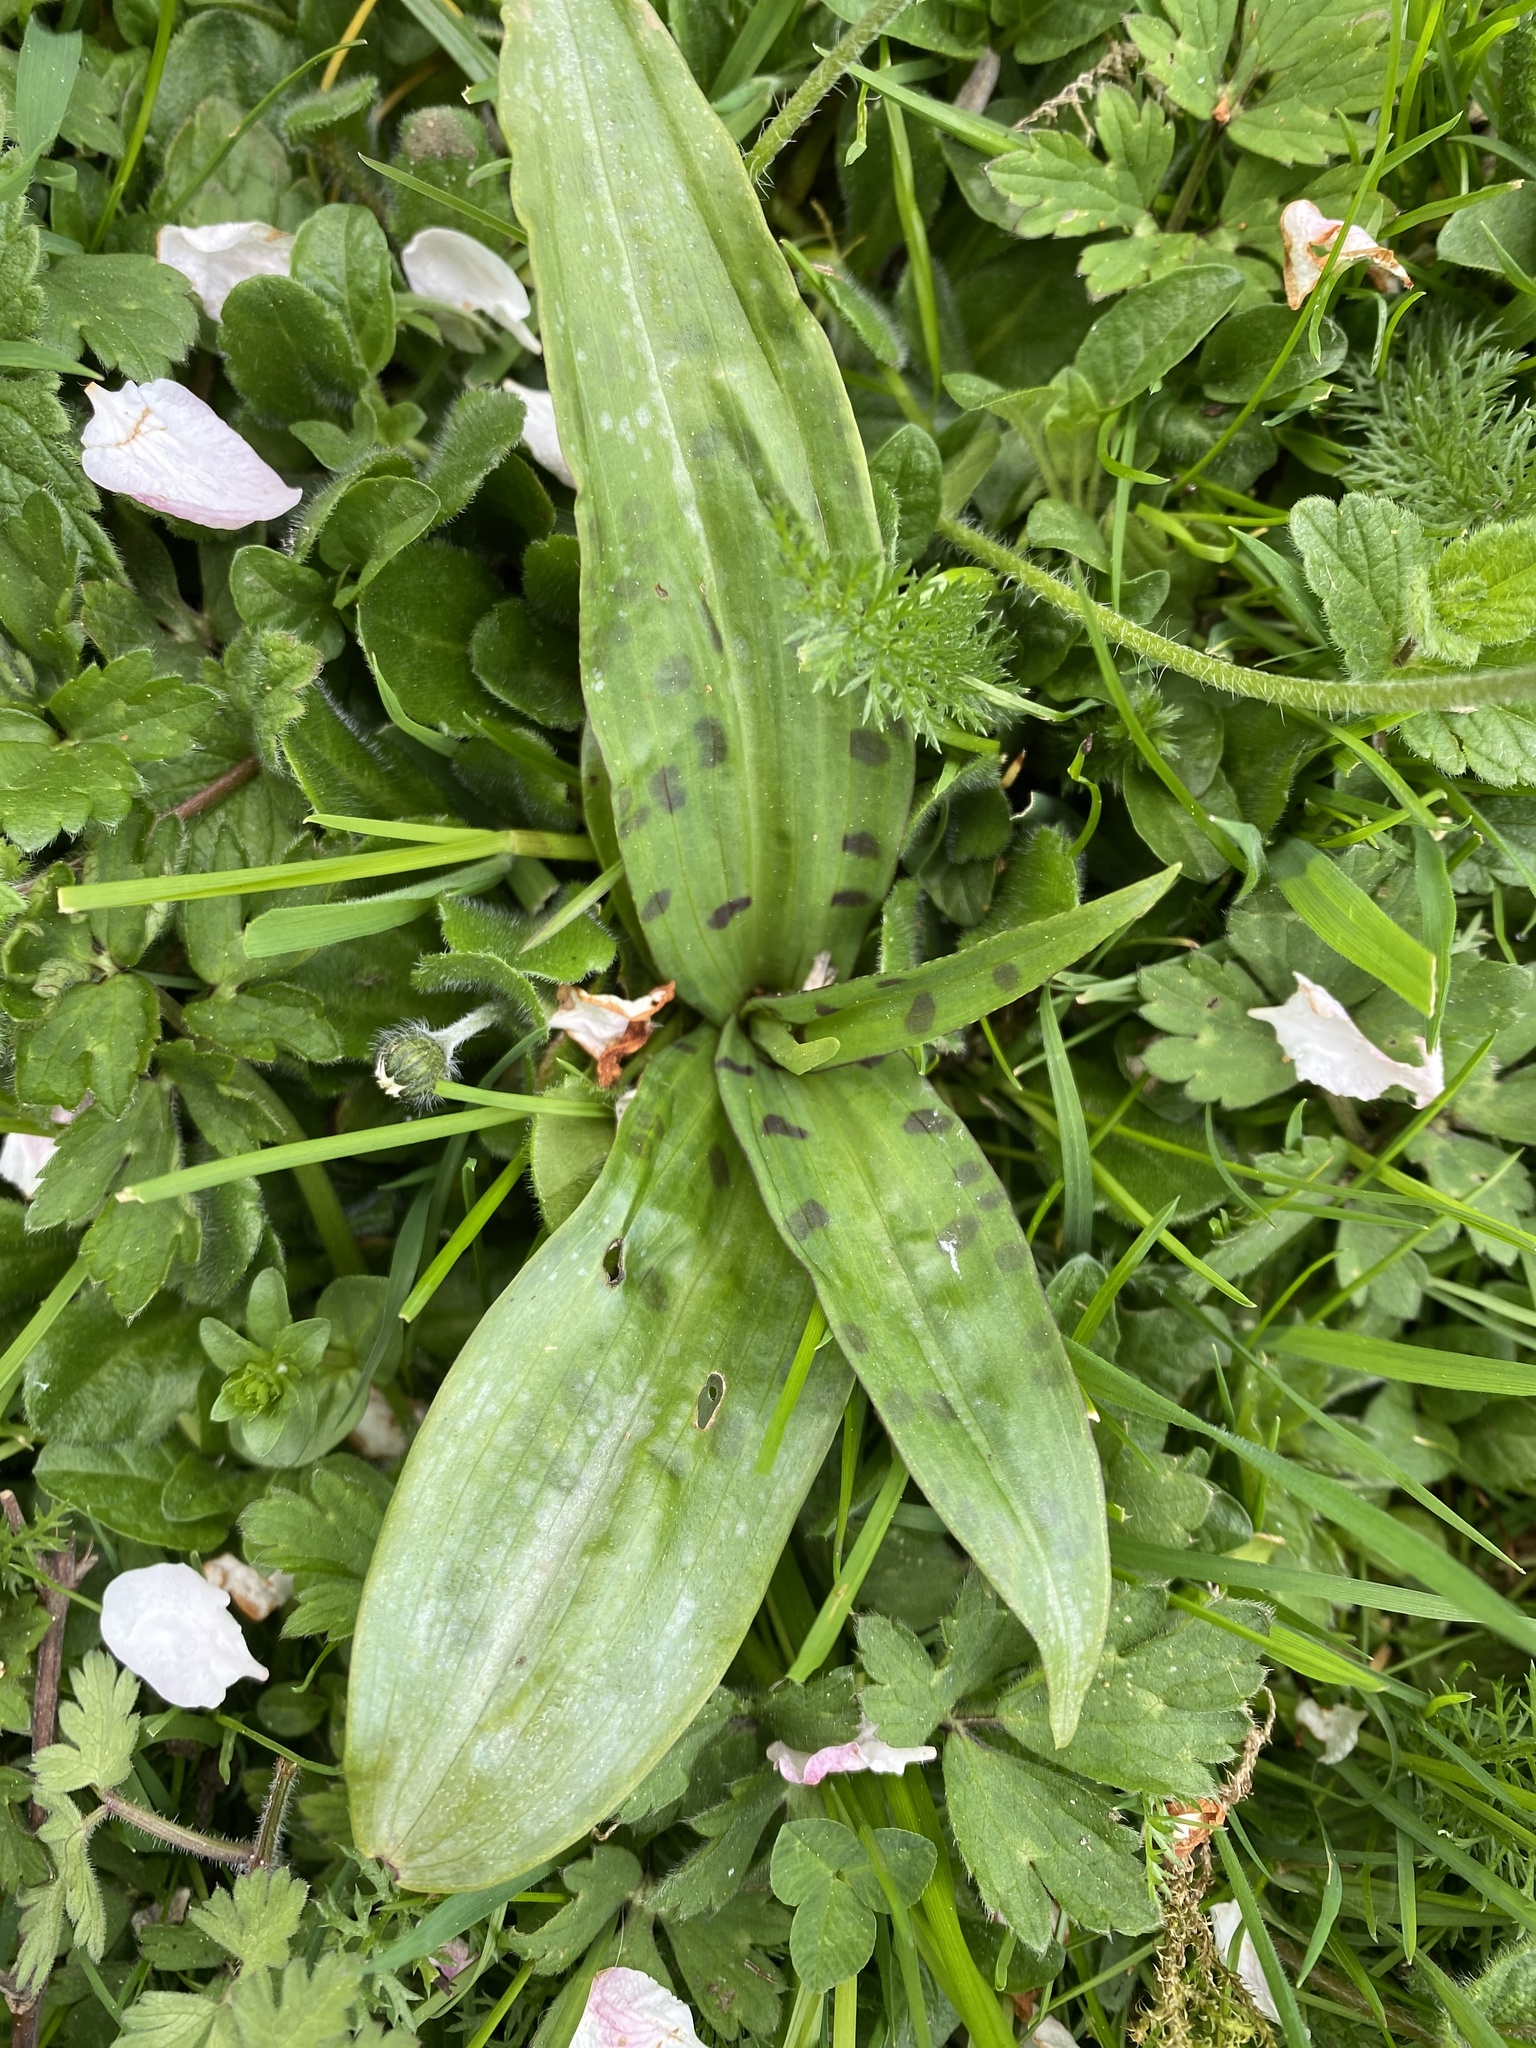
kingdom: Plantae
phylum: Tracheophyta
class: Liliopsida
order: Asparagales
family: Orchidaceae
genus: Dactylorhiza
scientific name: Dactylorhiza maculata
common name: Heath spotted-orchid
